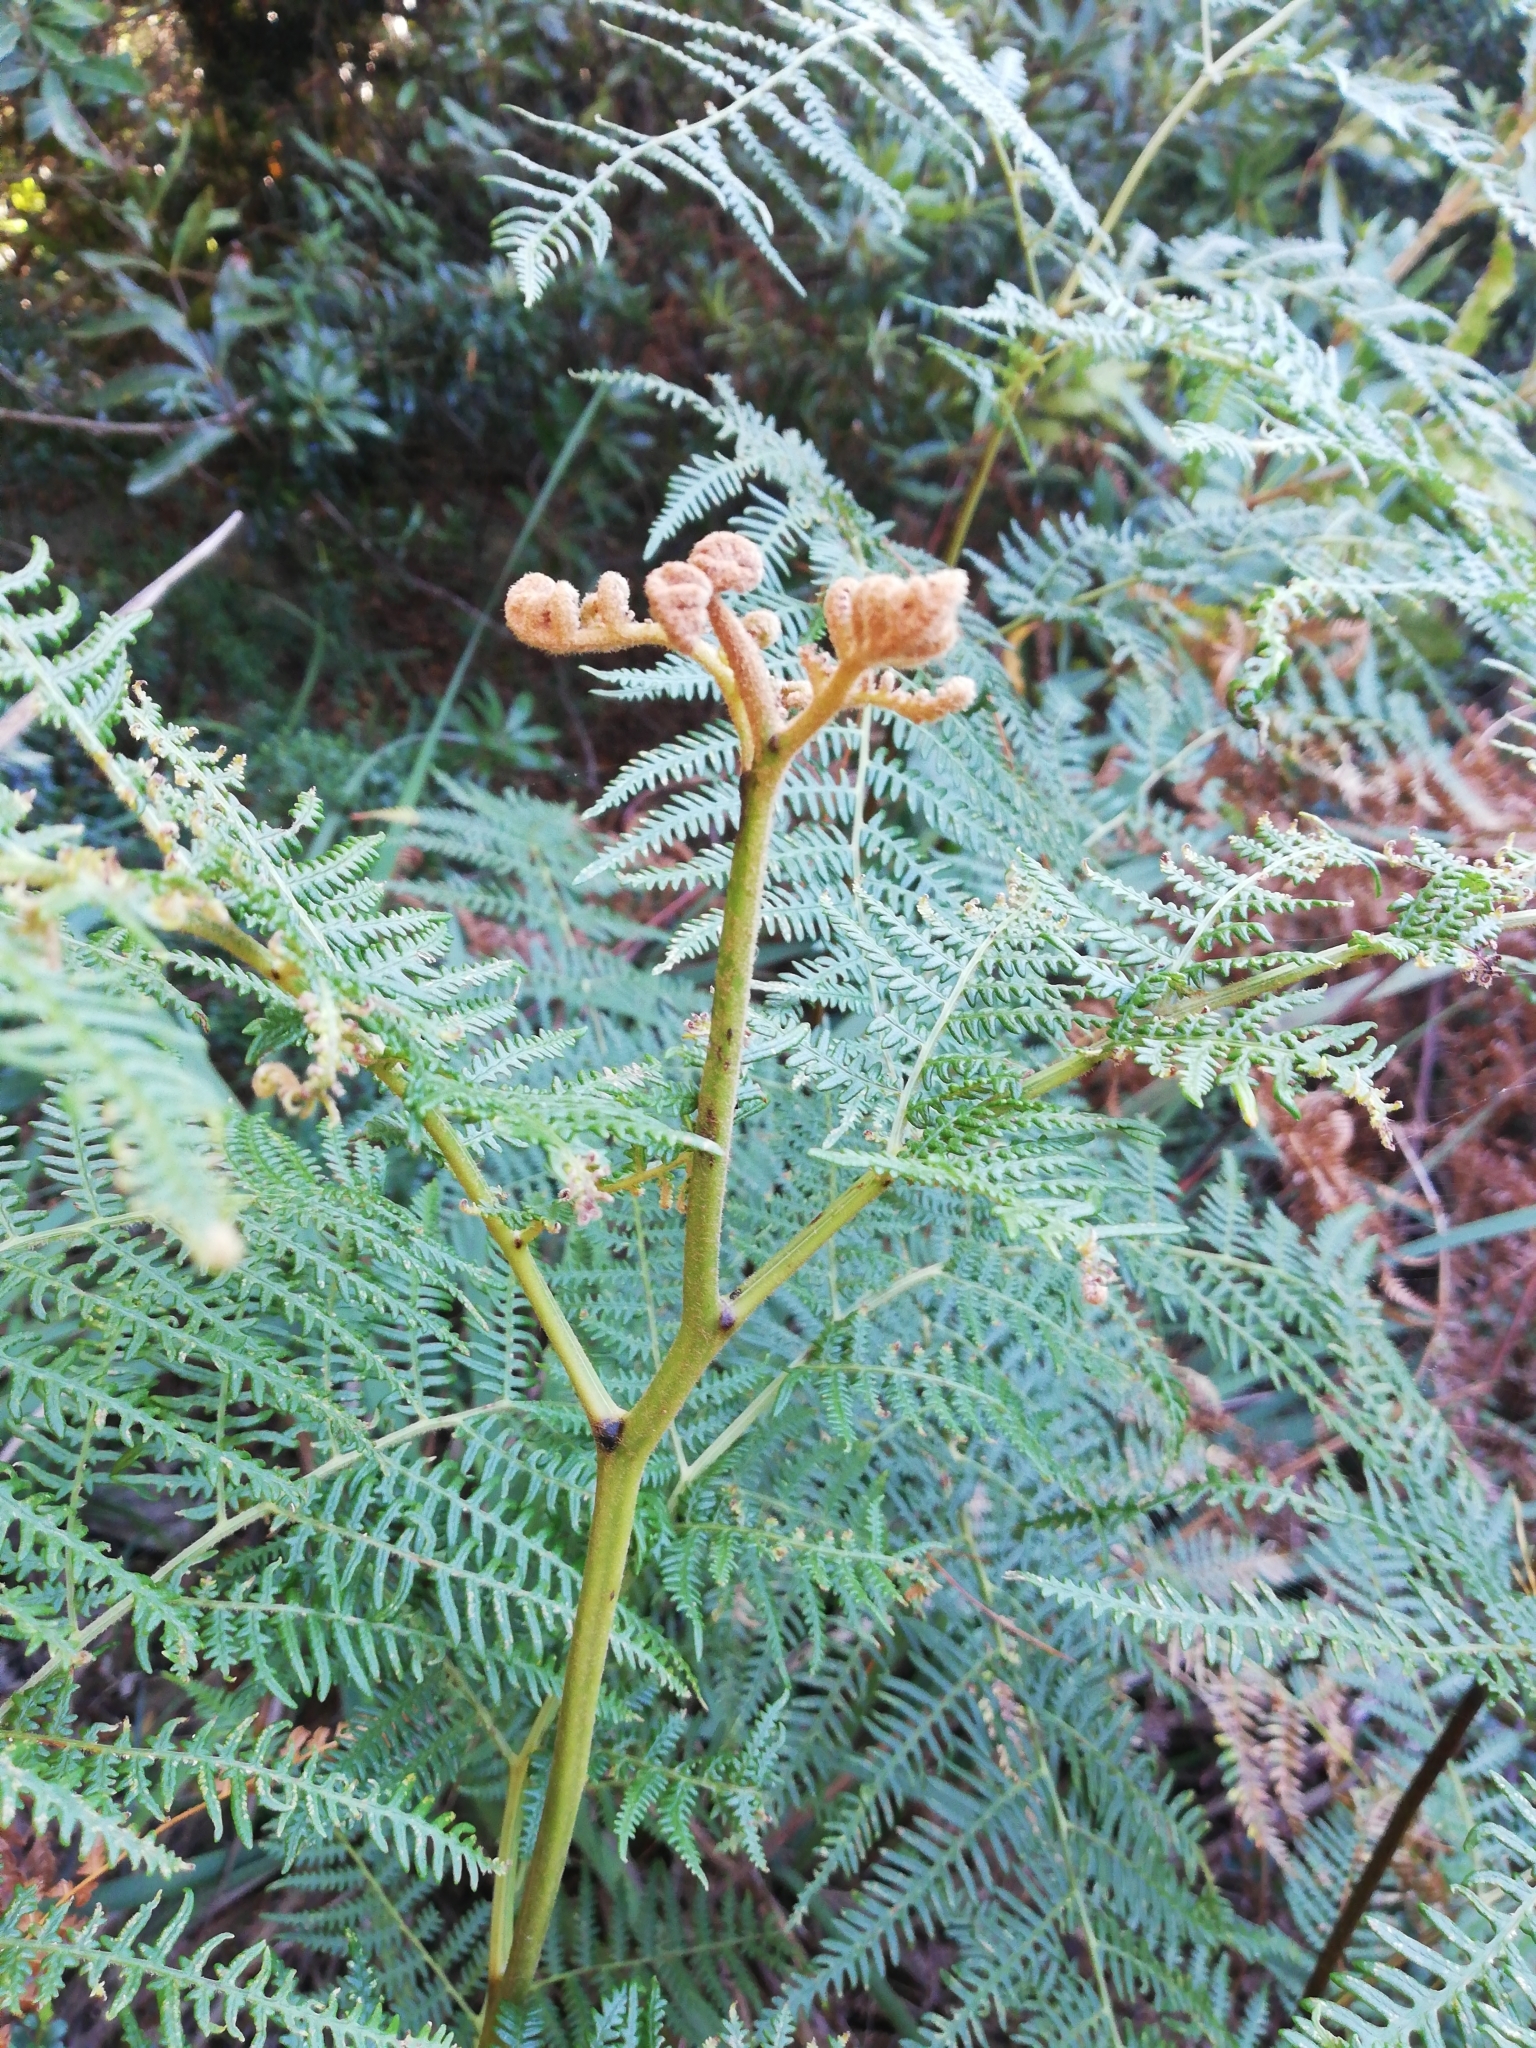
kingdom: Plantae
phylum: Tracheophyta
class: Polypodiopsida
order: Polypodiales
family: Dennstaedtiaceae
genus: Pteridium
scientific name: Pteridium aquilinum
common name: Bracken
